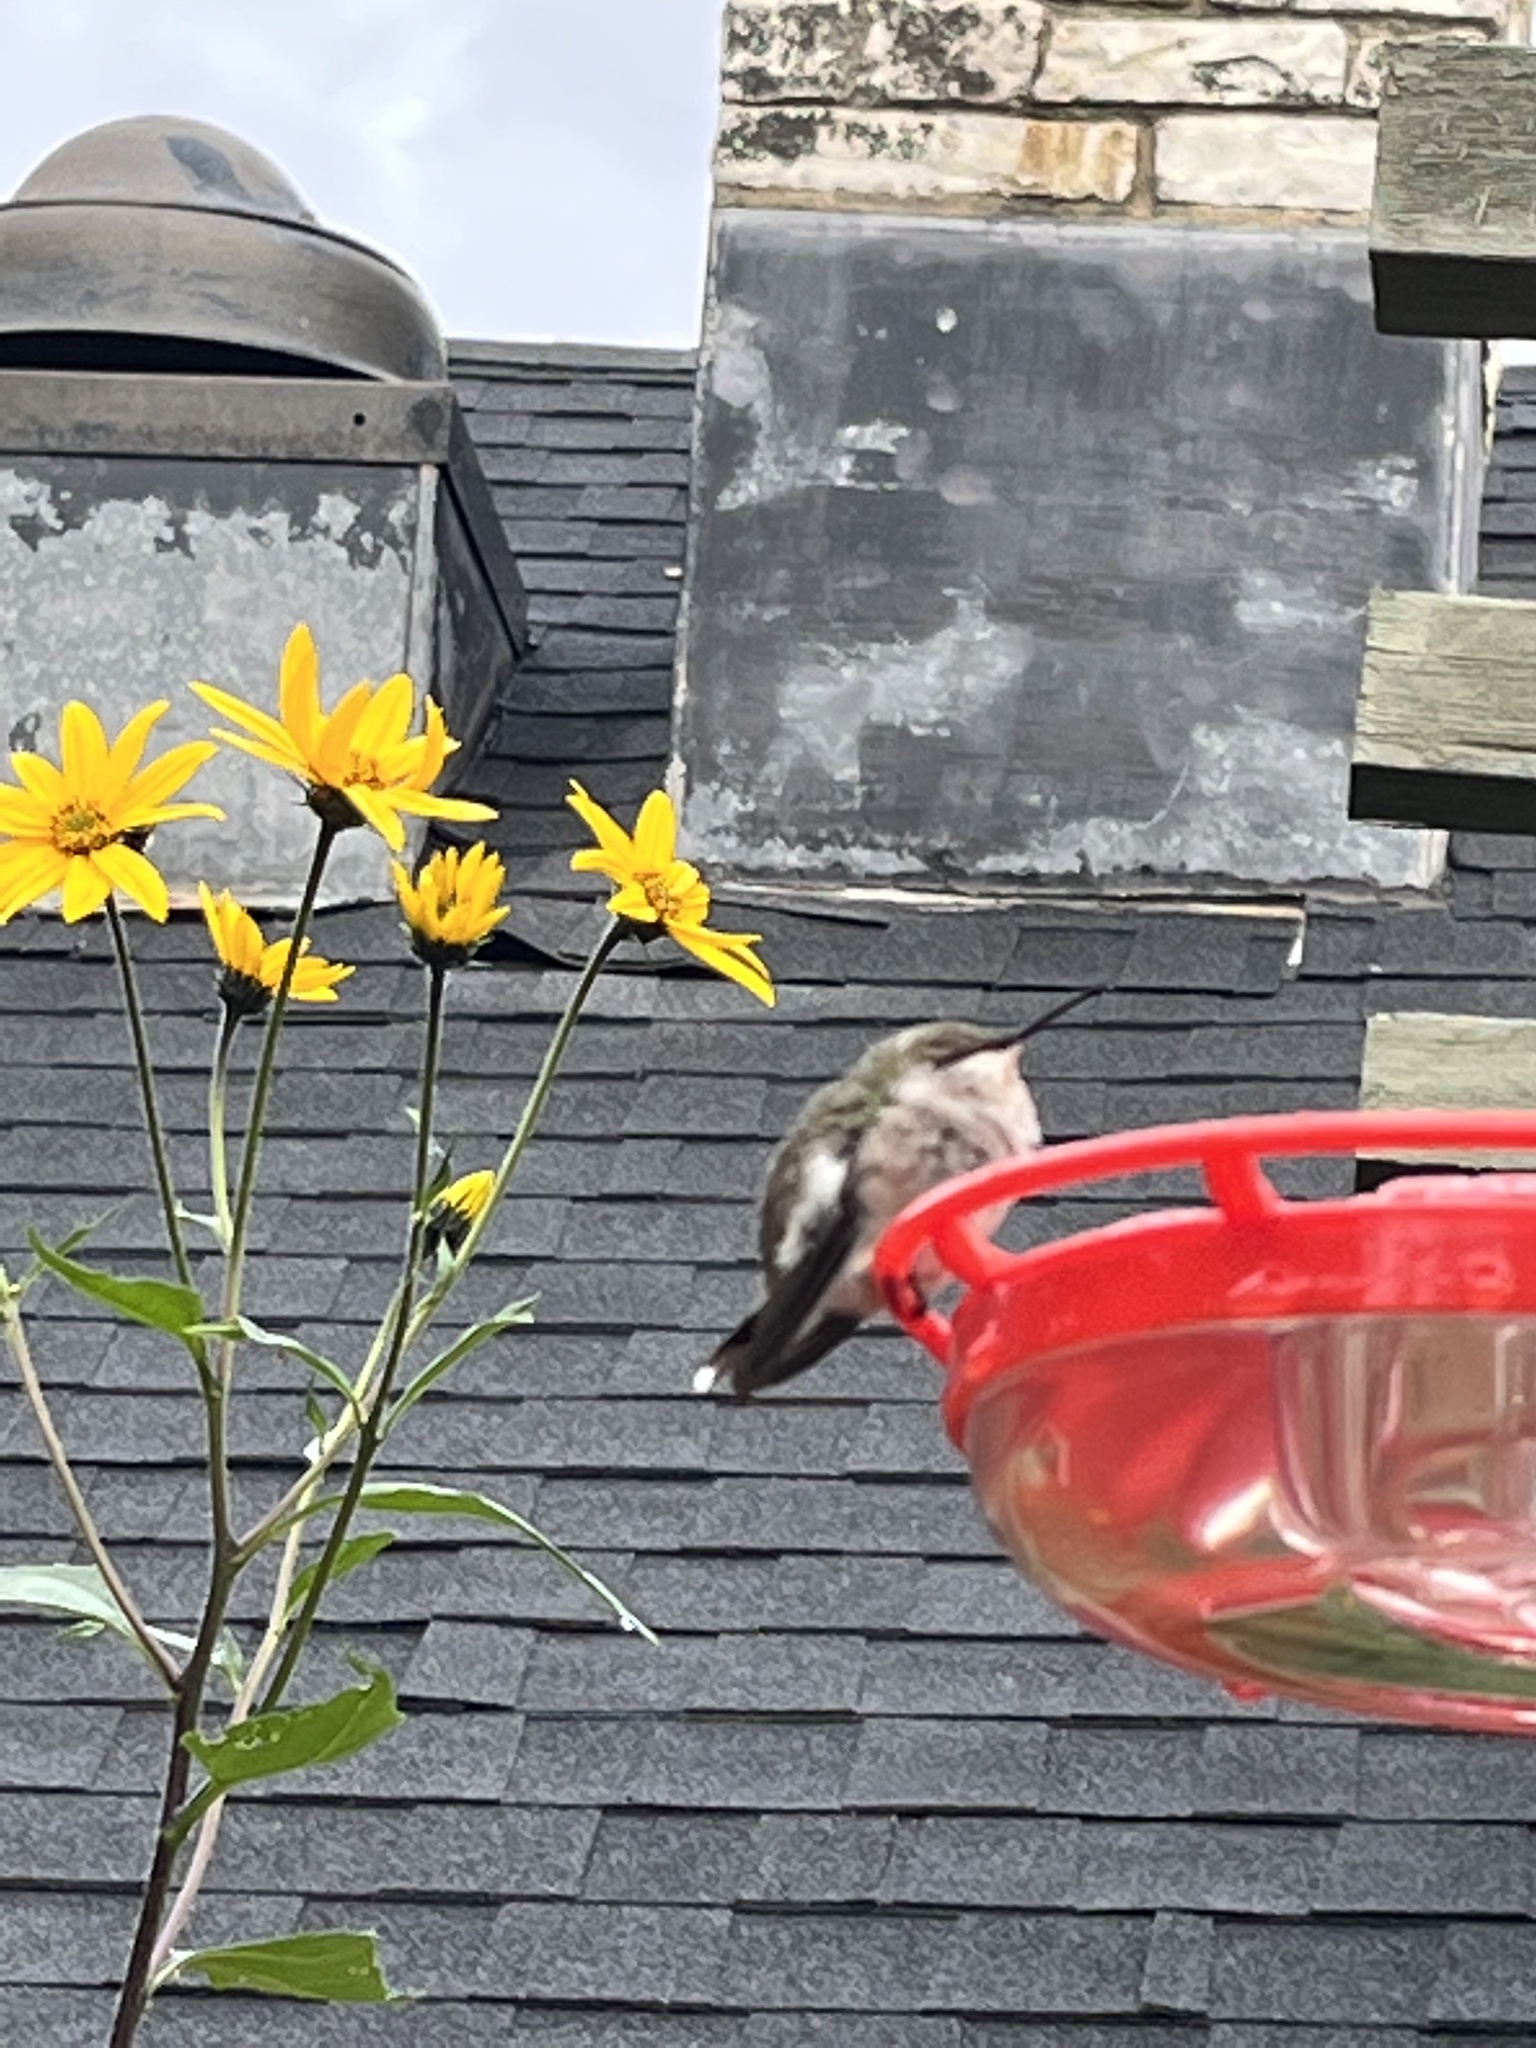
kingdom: Animalia
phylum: Chordata
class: Aves
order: Apodiformes
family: Trochilidae
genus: Archilochus
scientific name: Archilochus colubris
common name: Ruby-throated hummingbird
